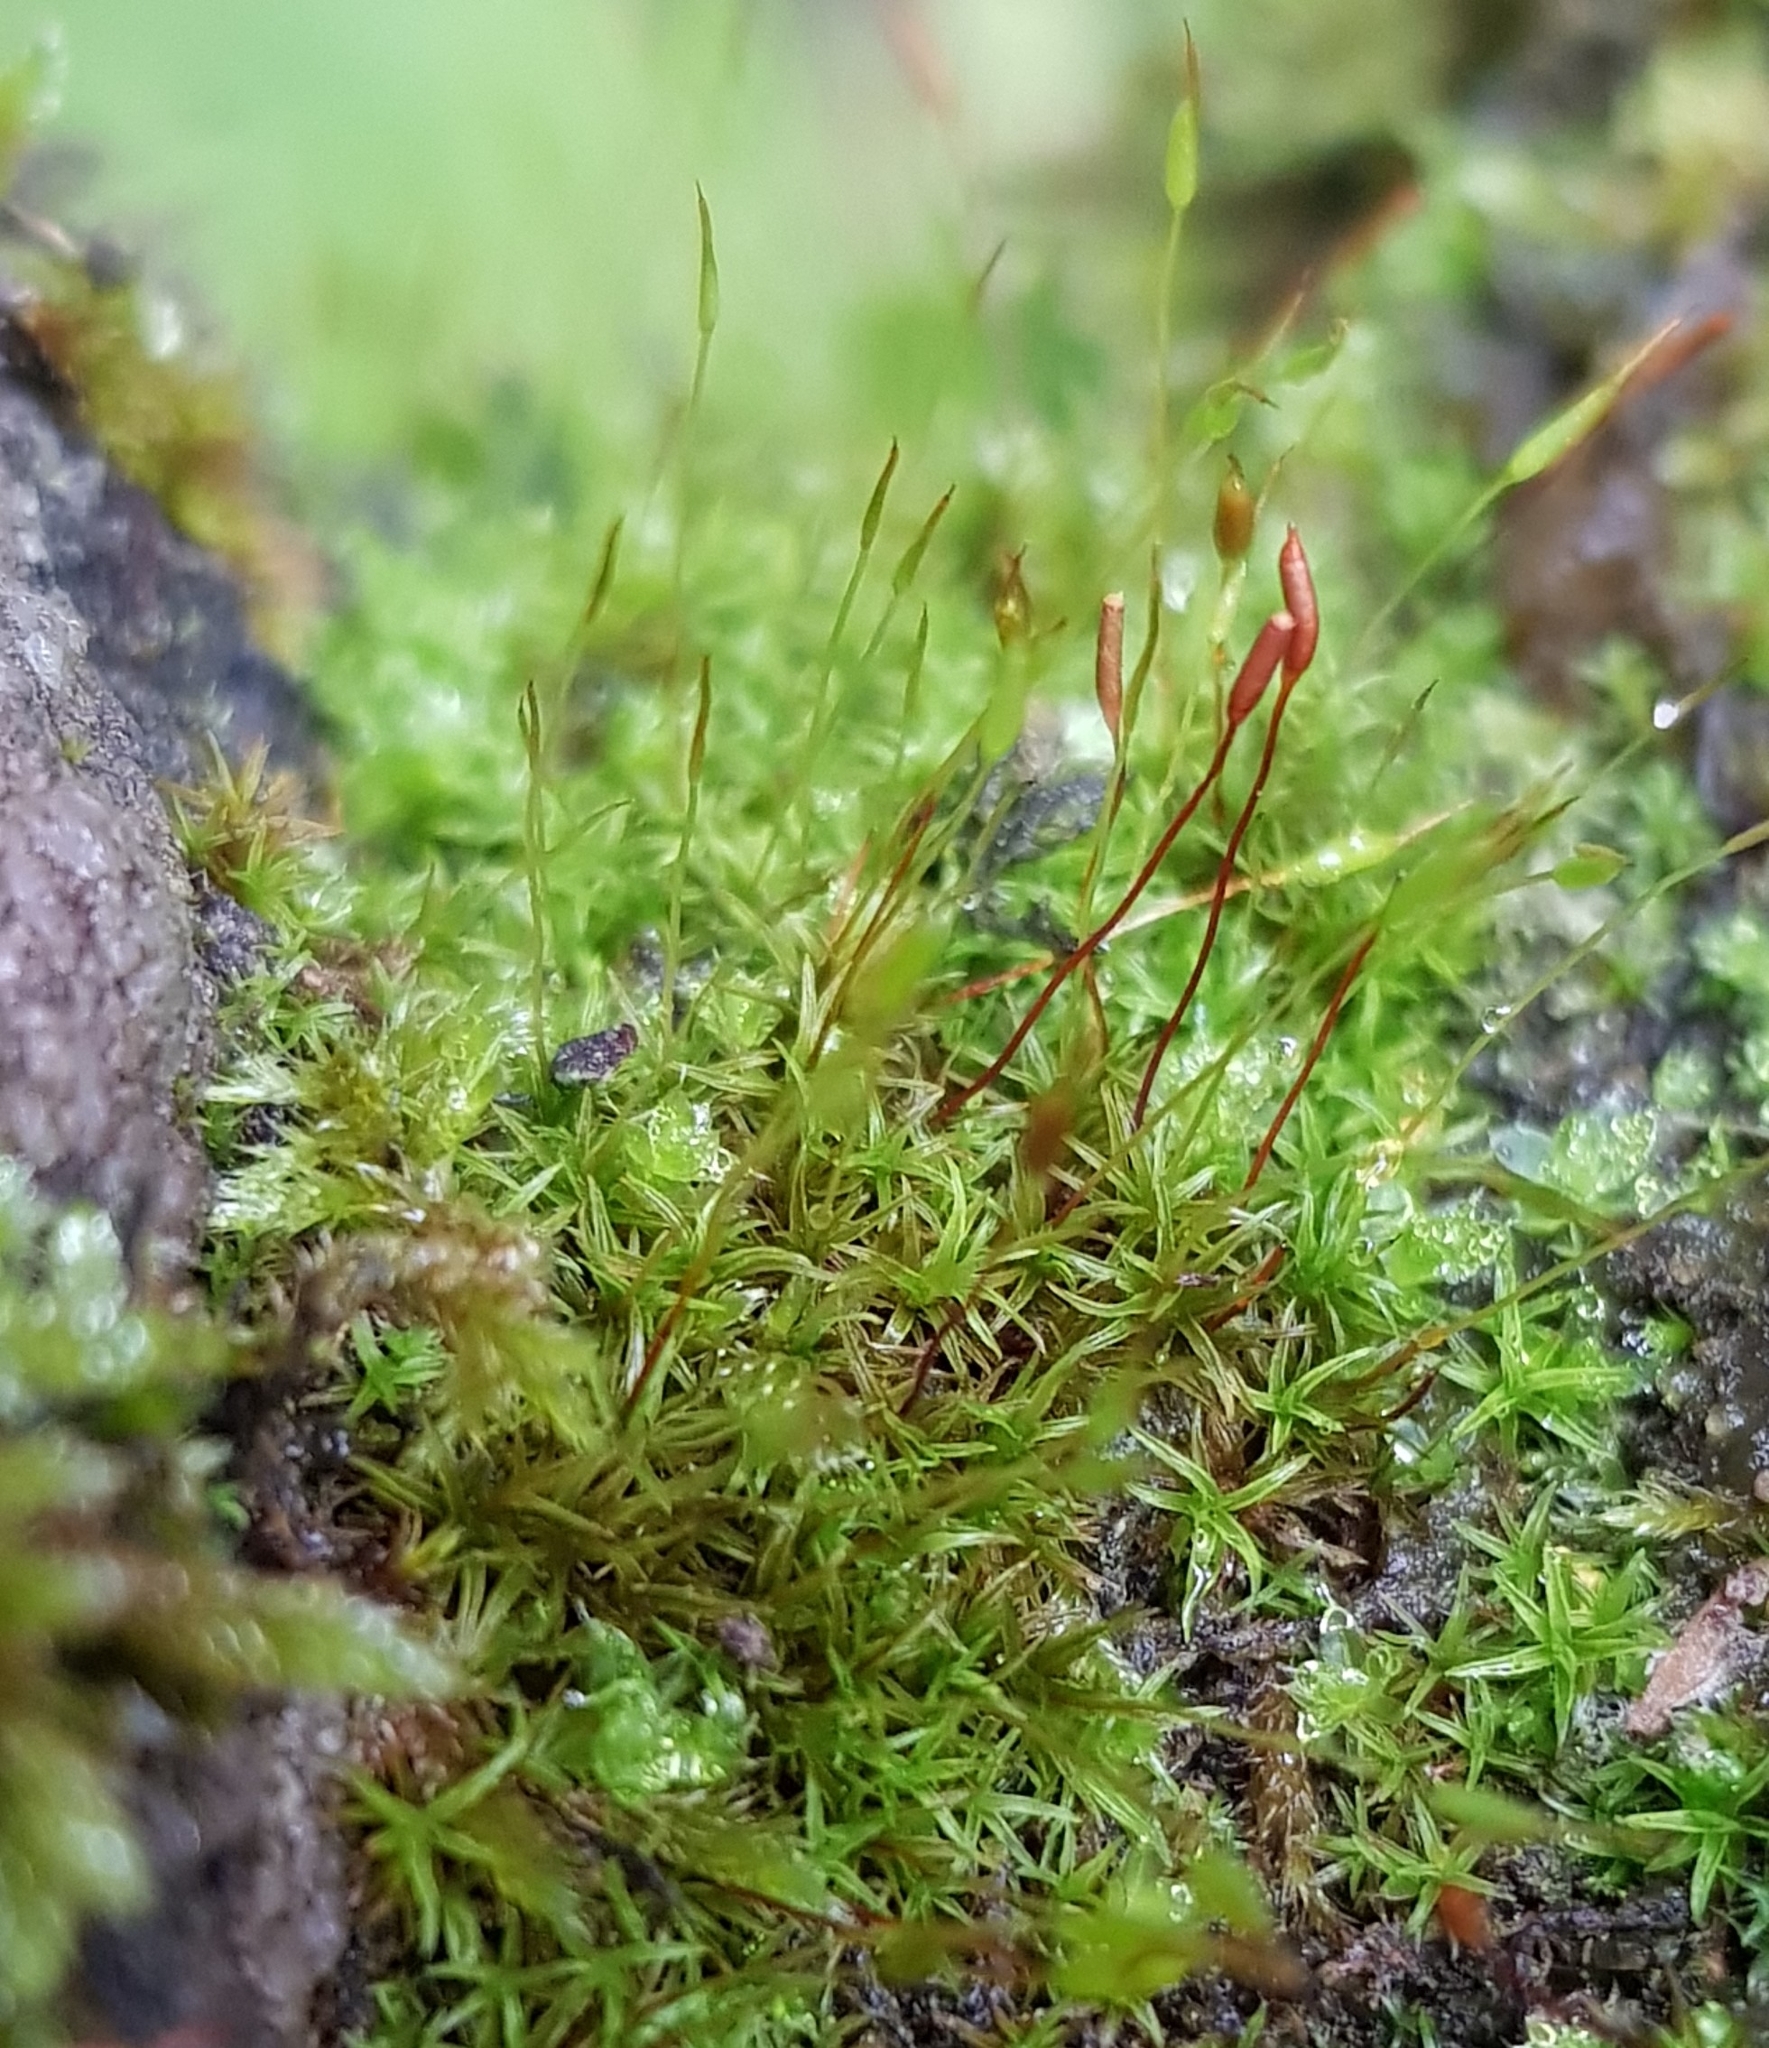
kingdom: Plantae
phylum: Bryophyta
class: Bryopsida
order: Pottiales
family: Pottiaceae
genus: Bryoerythrophyllum
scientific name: Bryoerythrophyllum recurvirostrum
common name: Red beard moss
